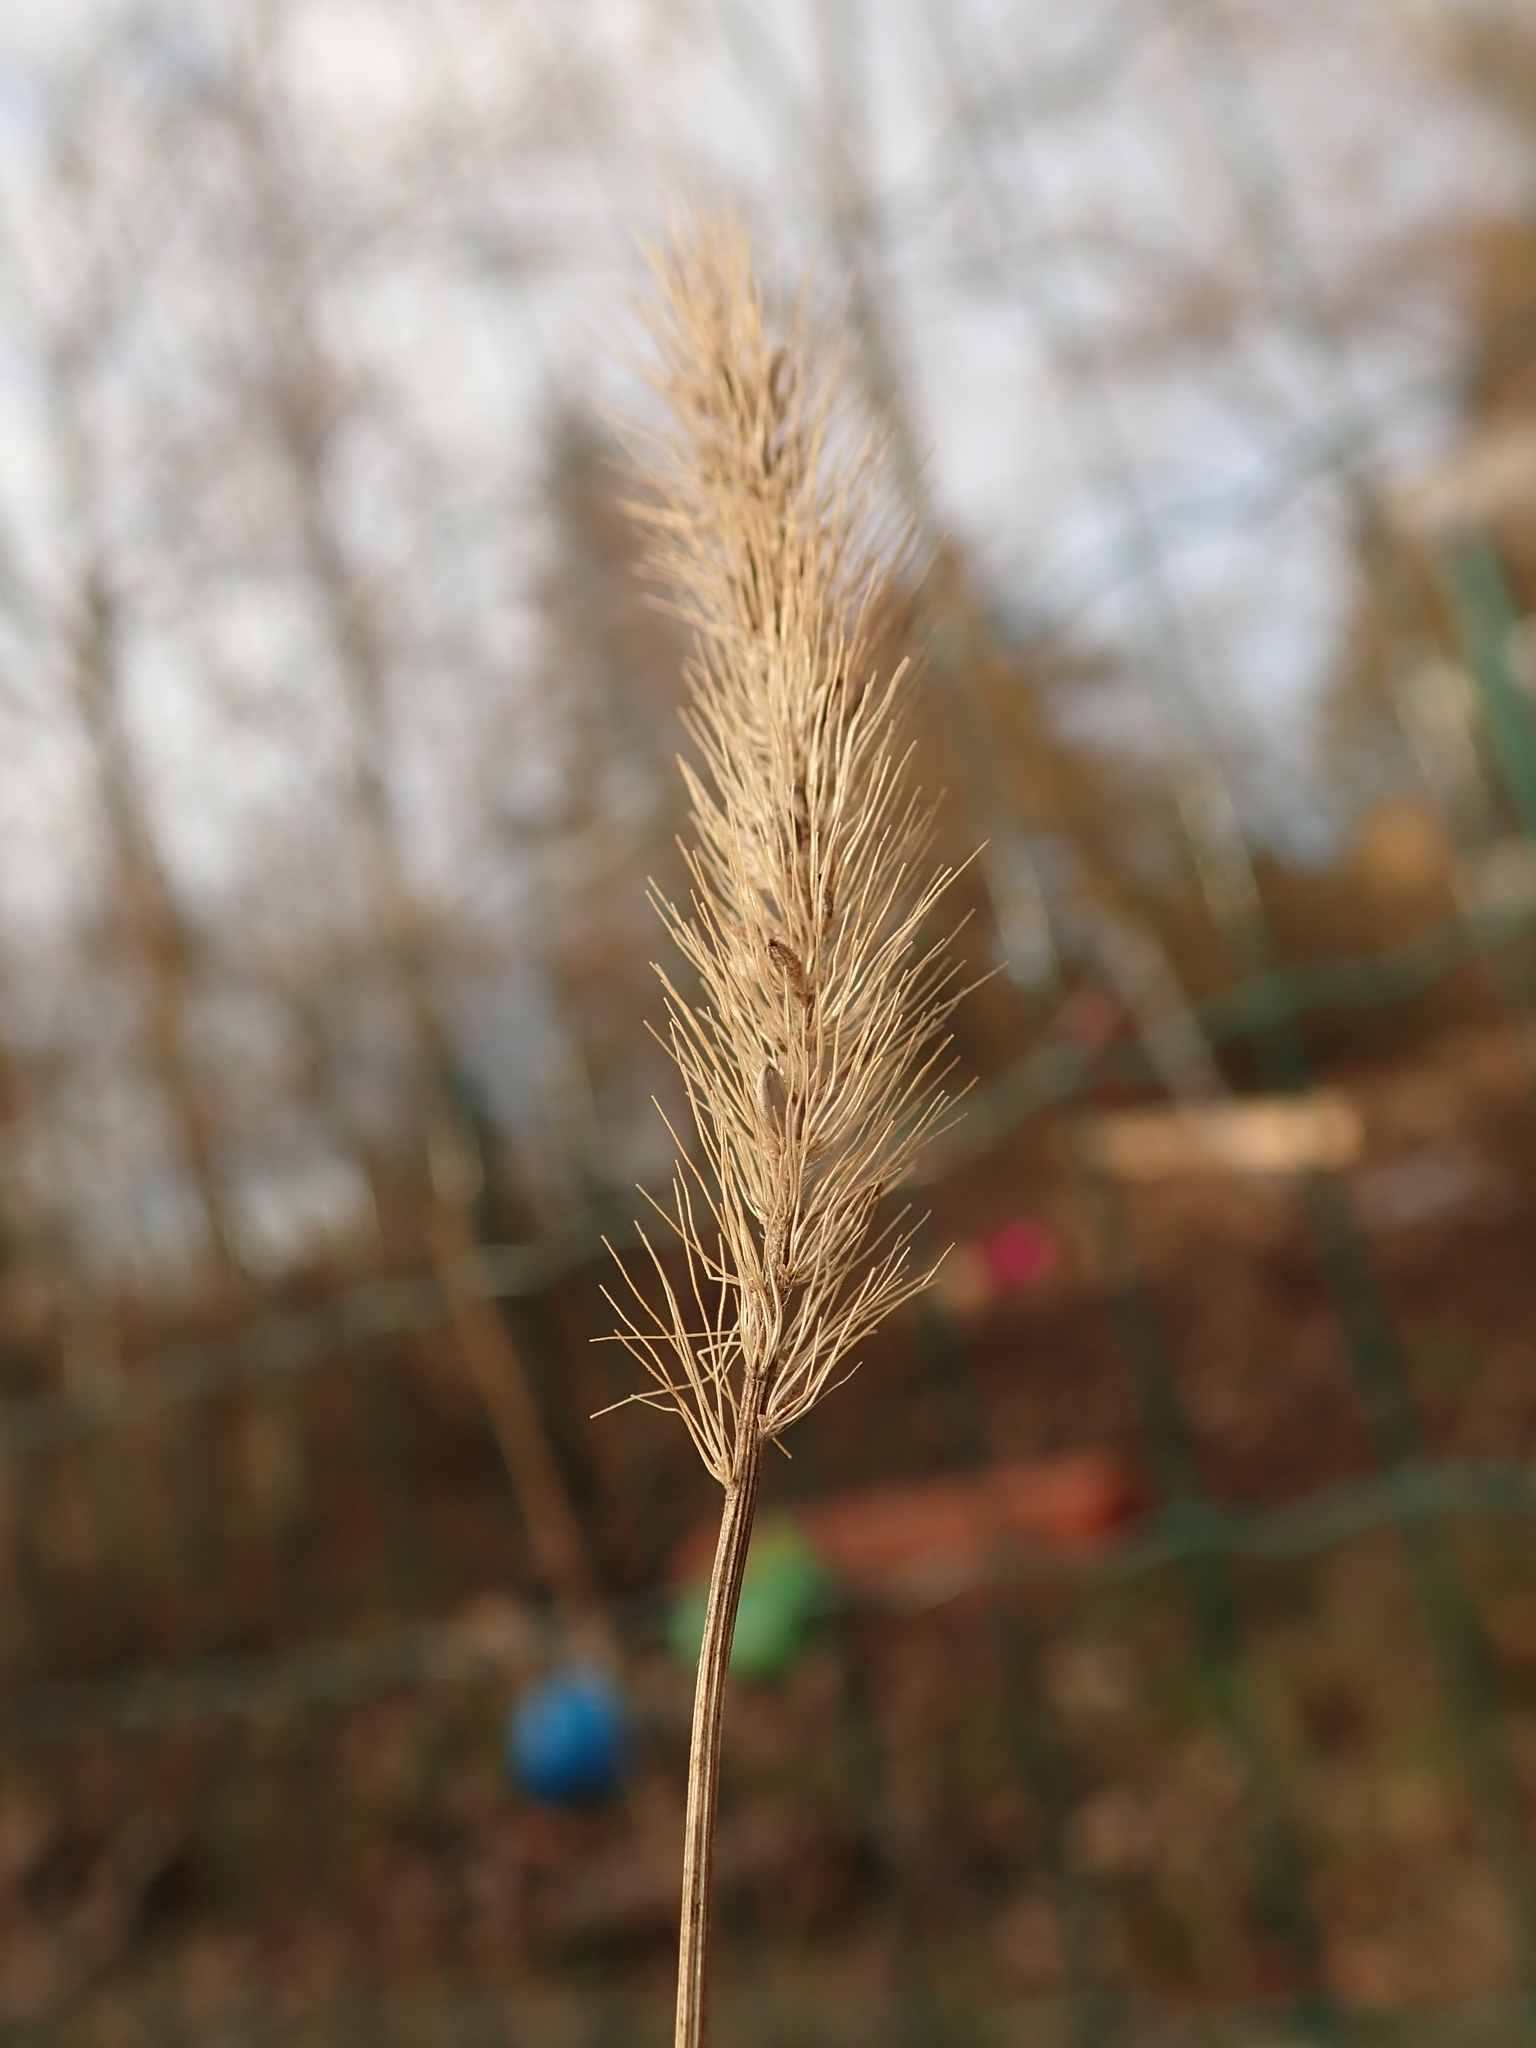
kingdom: Plantae
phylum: Tracheophyta
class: Liliopsida
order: Poales
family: Poaceae
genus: Setaria
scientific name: Setaria viridis
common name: Green bristlegrass
